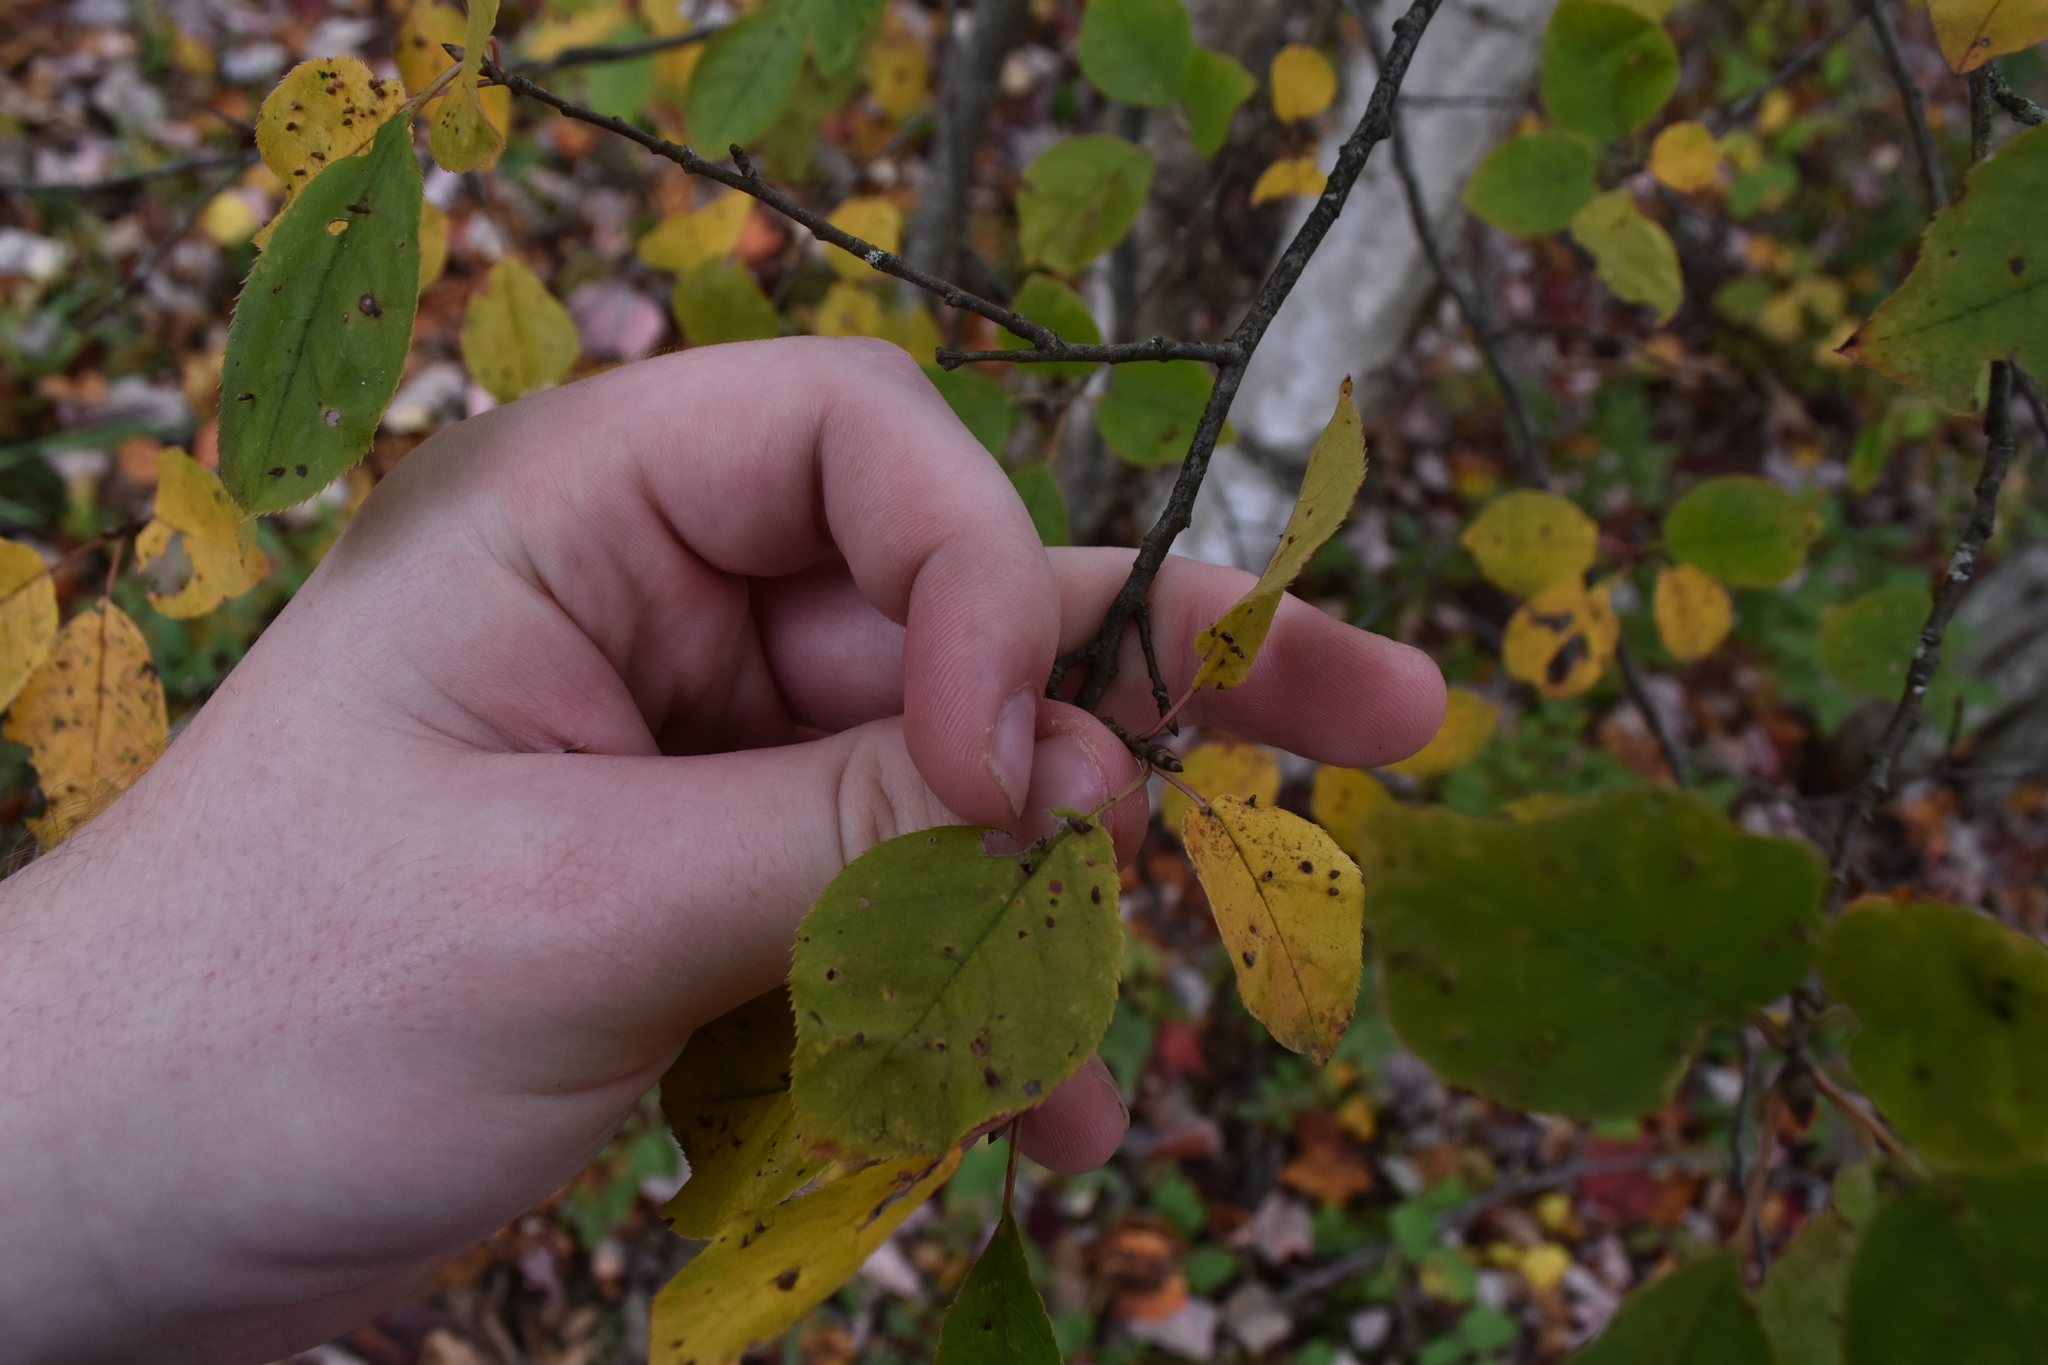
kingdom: Plantae
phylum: Tracheophyta
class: Magnoliopsida
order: Rosales
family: Rosaceae
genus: Prunus
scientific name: Prunus virginiana
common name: Chokecherry
